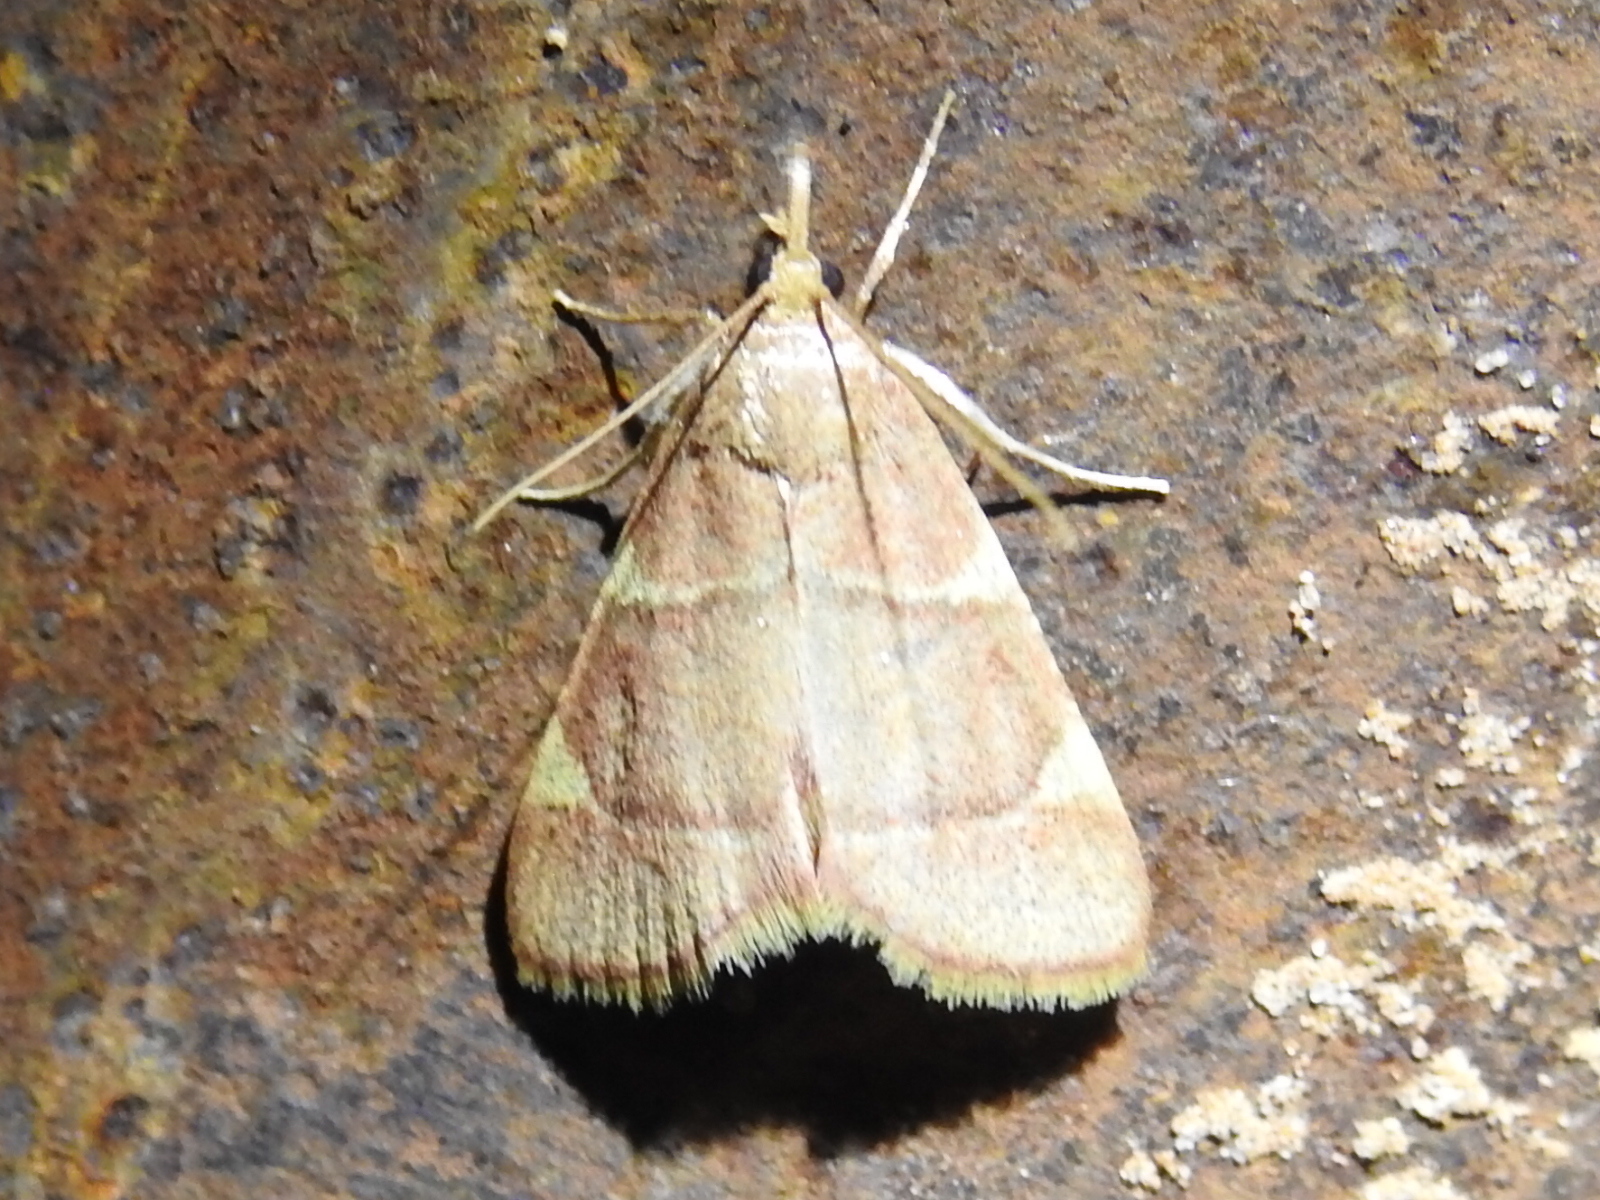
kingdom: Animalia
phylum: Arthropoda
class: Insecta
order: Lepidoptera
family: Pyralidae
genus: Hypsopygia
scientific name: Hypsopygia olinalis
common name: Yellow-fringed dolichomia moth
